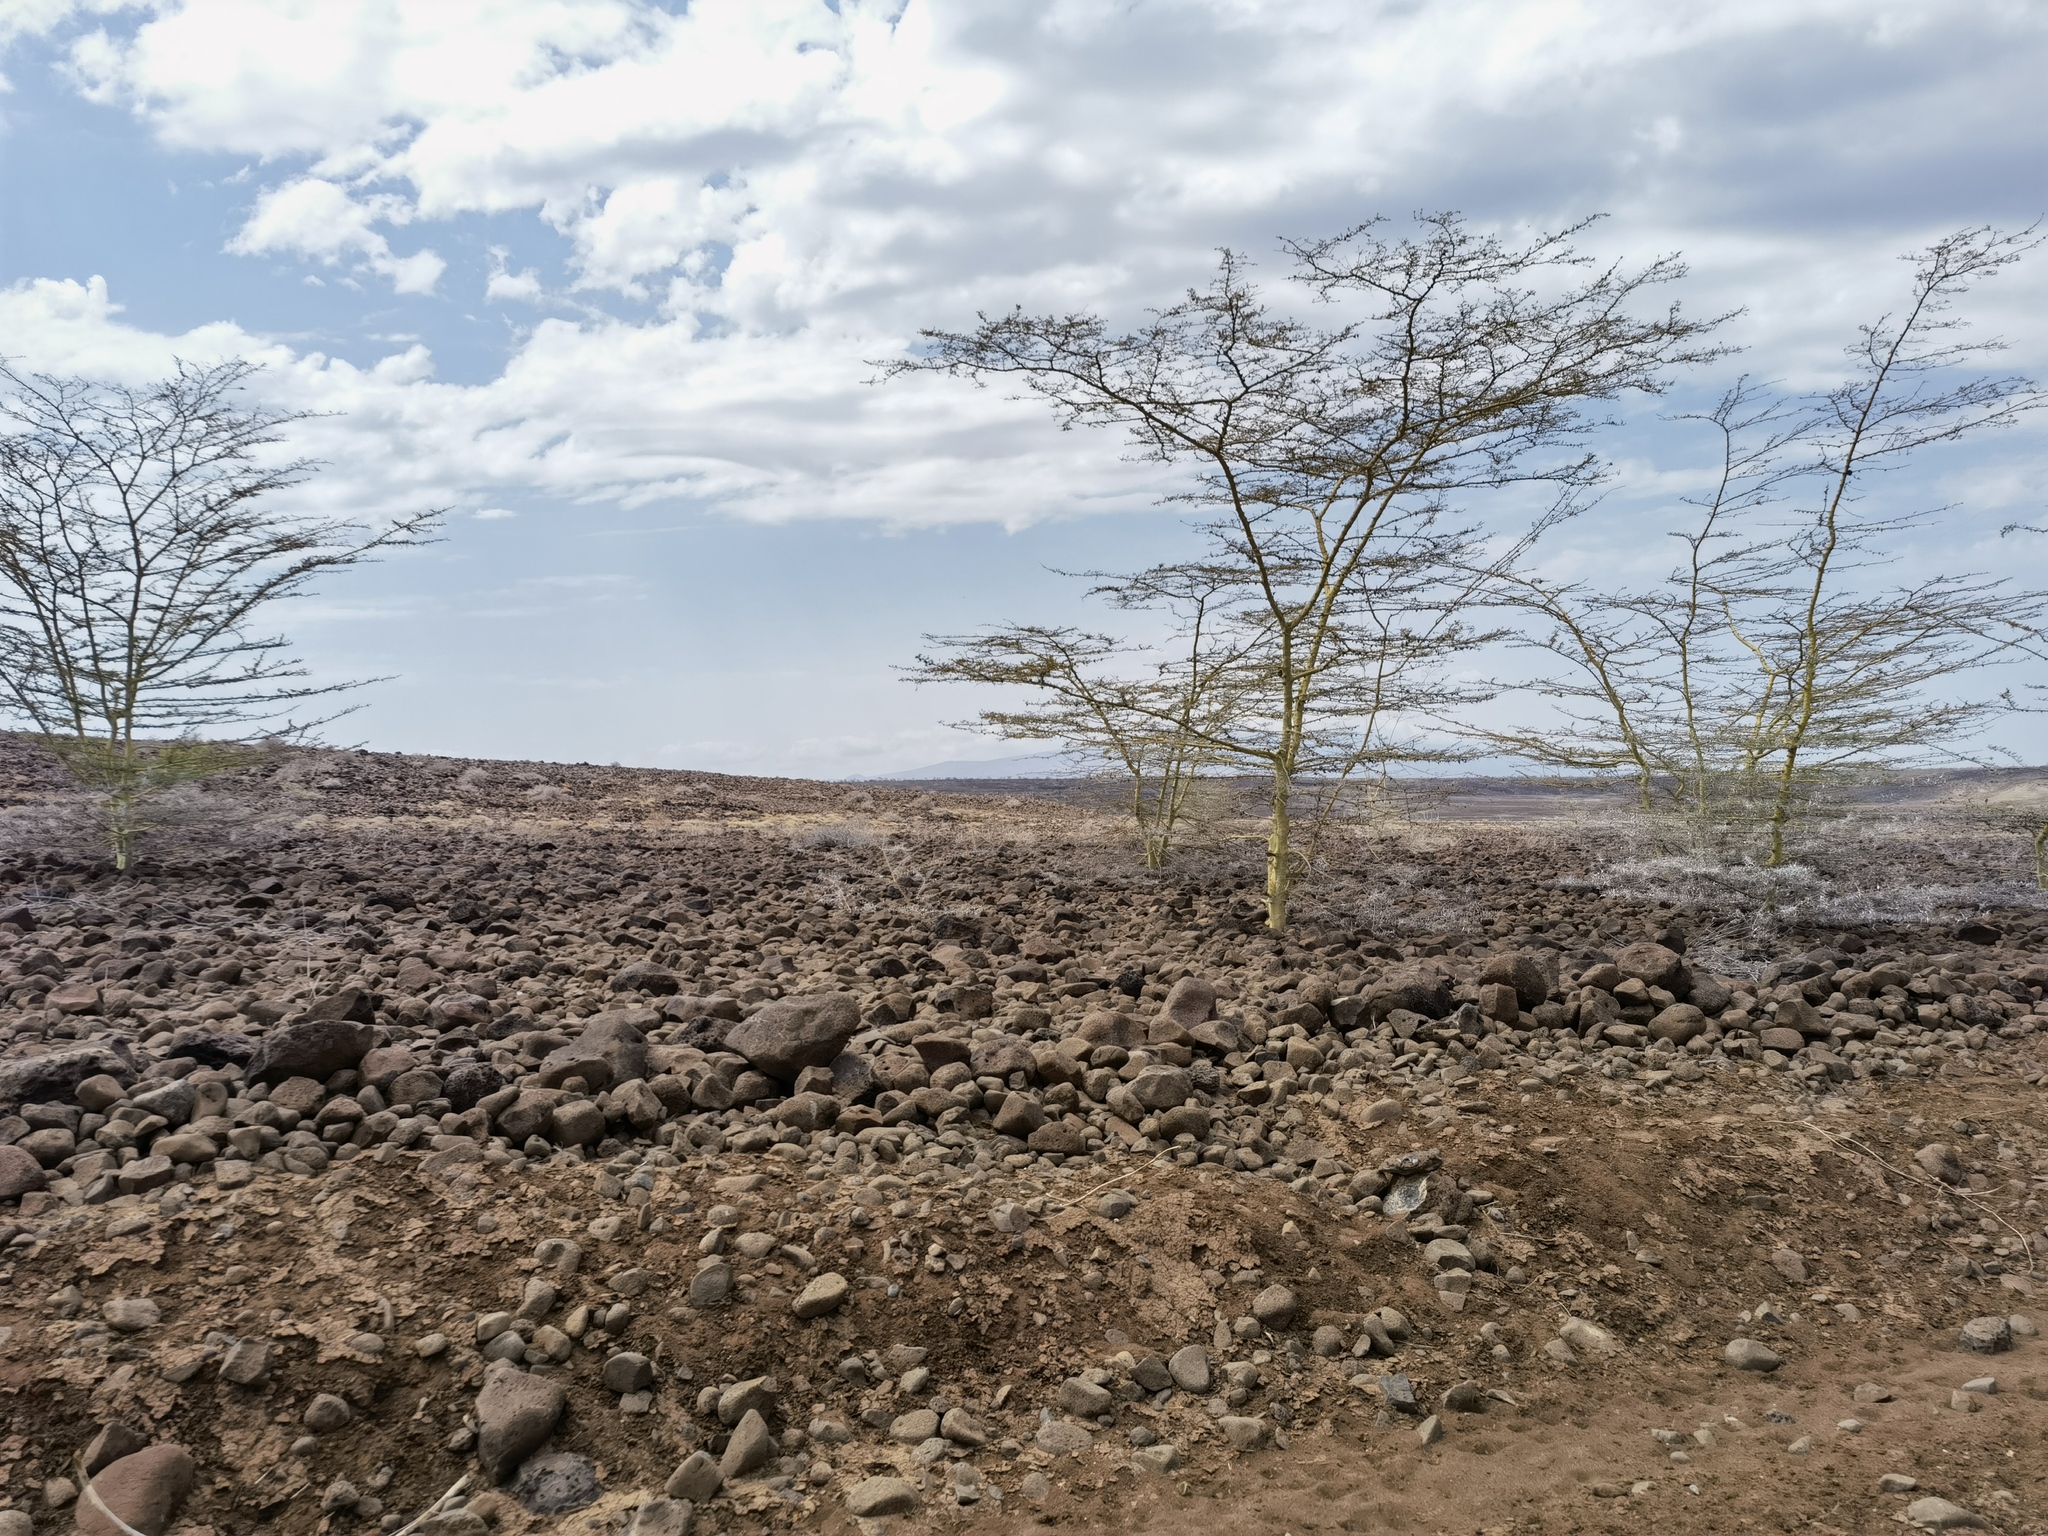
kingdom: Plantae
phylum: Tracheophyta
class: Magnoliopsida
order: Fabales
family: Fabaceae
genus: Vachellia
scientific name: Vachellia xanthophloea
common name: Fever tree
